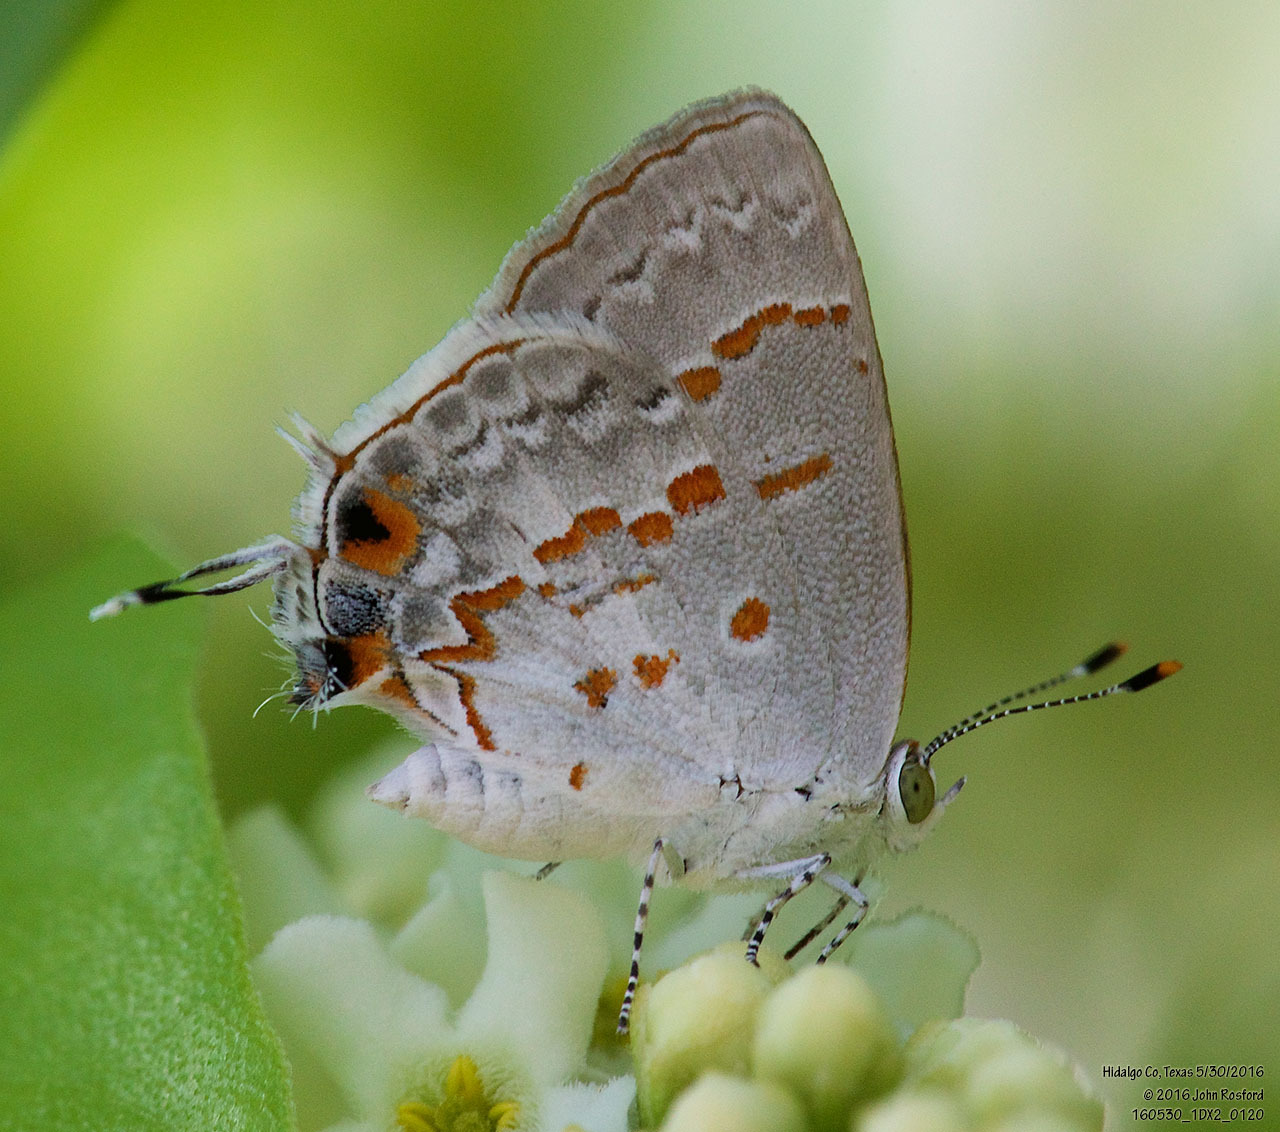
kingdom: Animalia
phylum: Arthropoda
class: Insecta
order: Lepidoptera
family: Lycaenidae
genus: Ministrymon
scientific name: Ministrymon clytie
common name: Clytie ministreak
